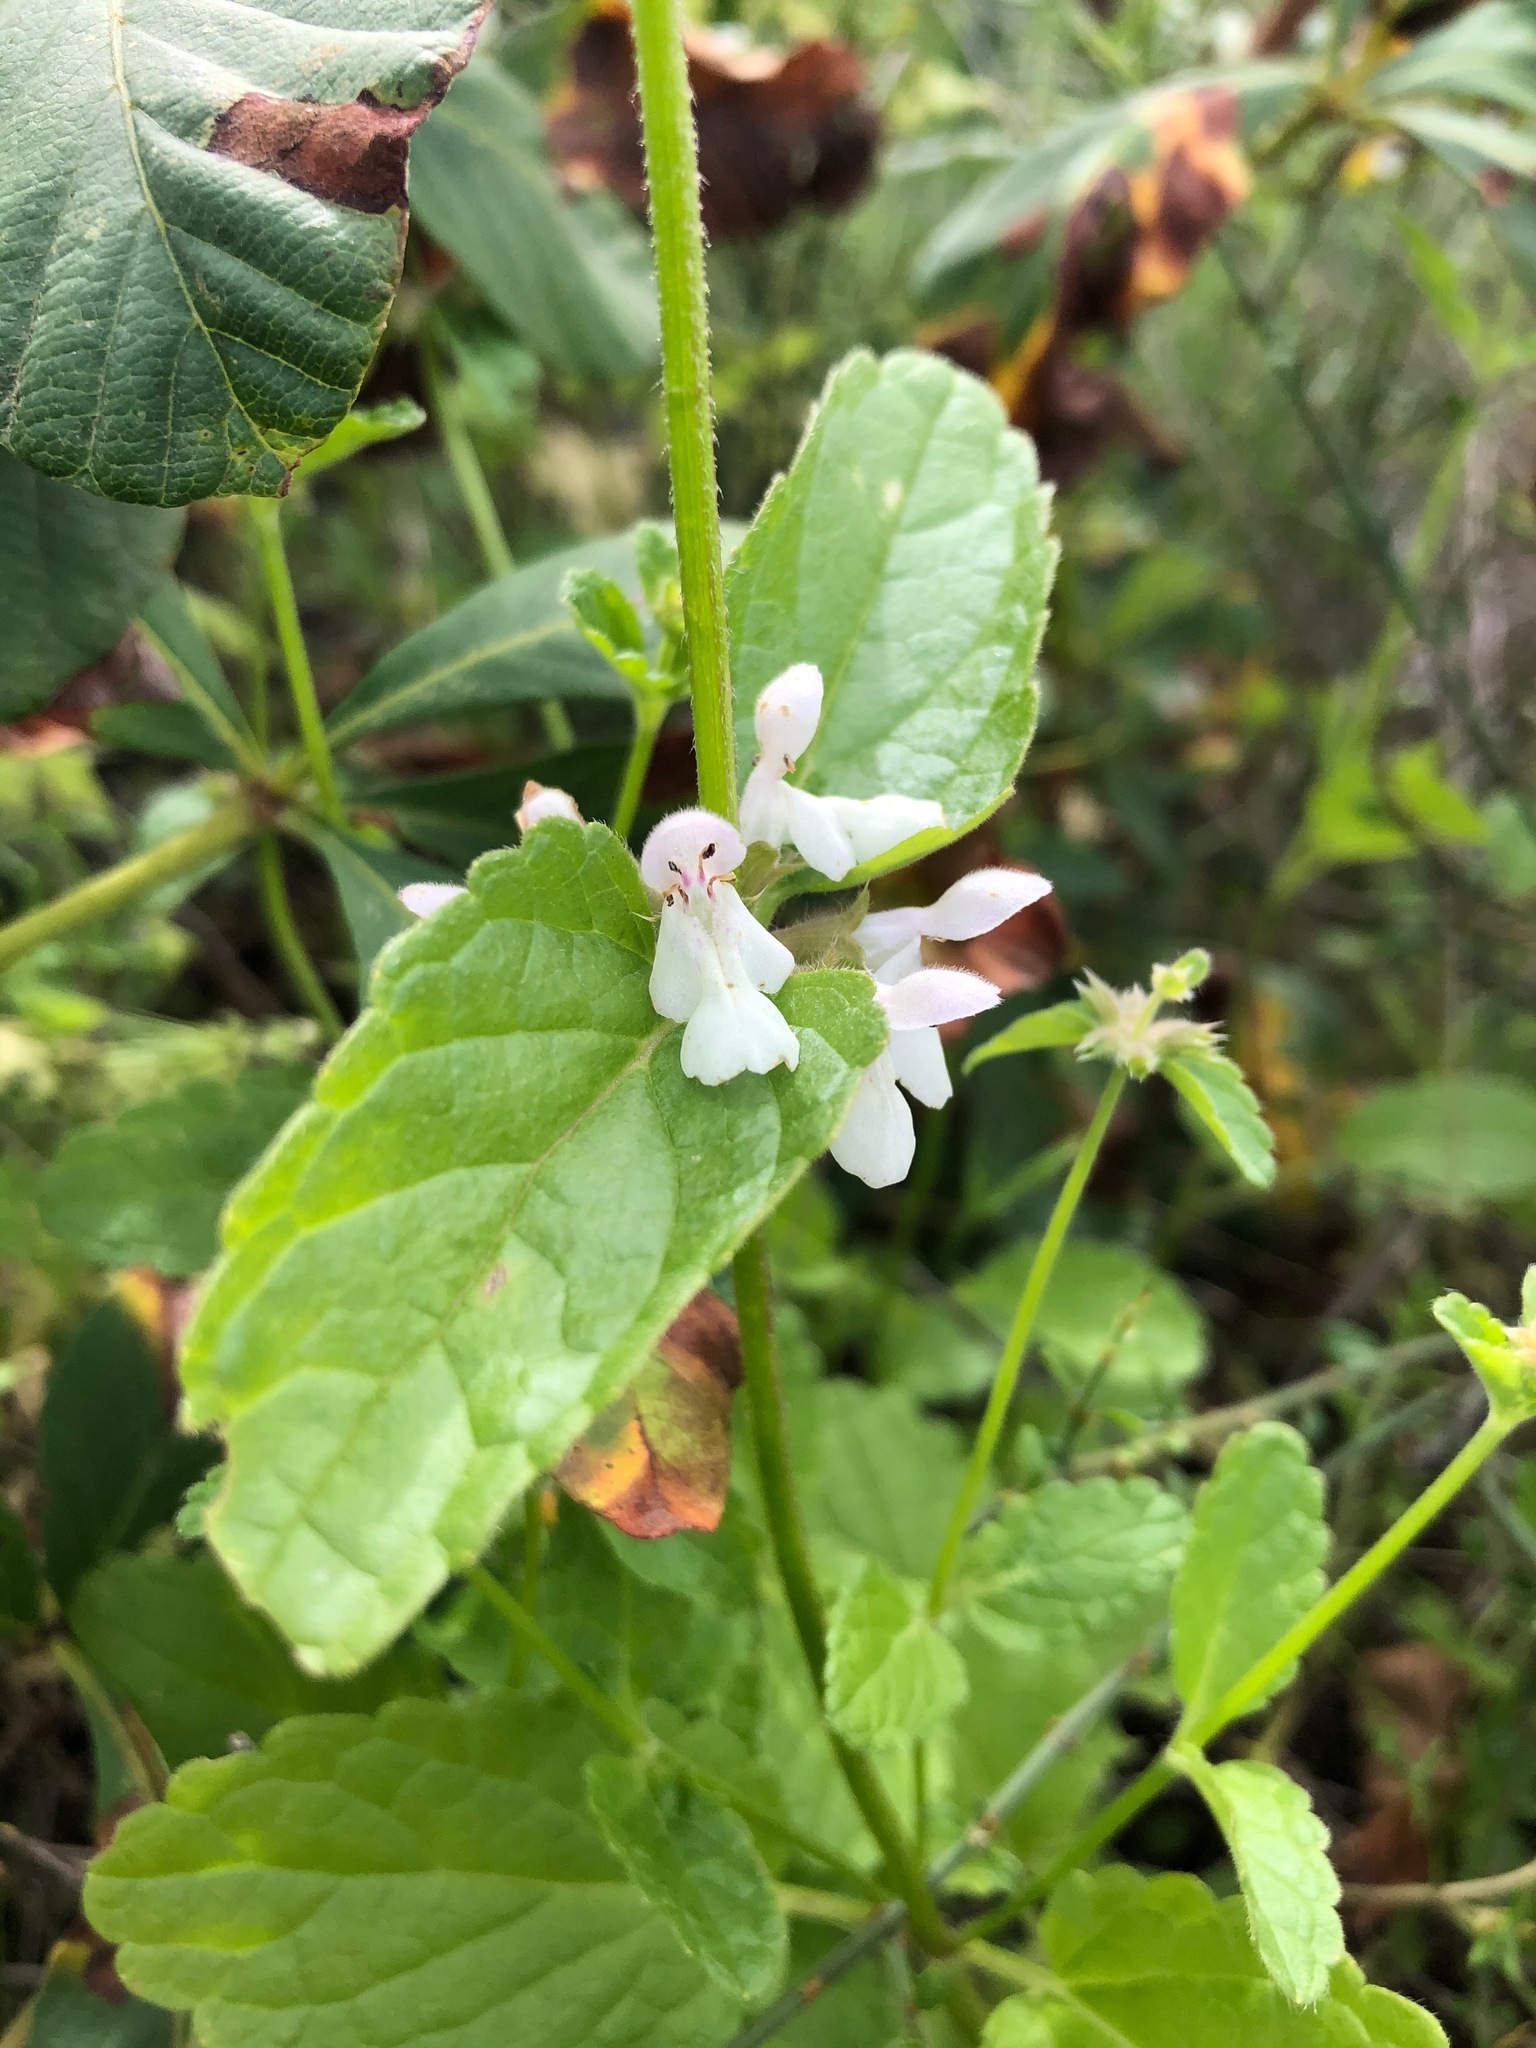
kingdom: Plantae
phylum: Tracheophyta
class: Magnoliopsida
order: Lamiales
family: Lamiaceae
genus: Stachys
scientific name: Stachys rigida
